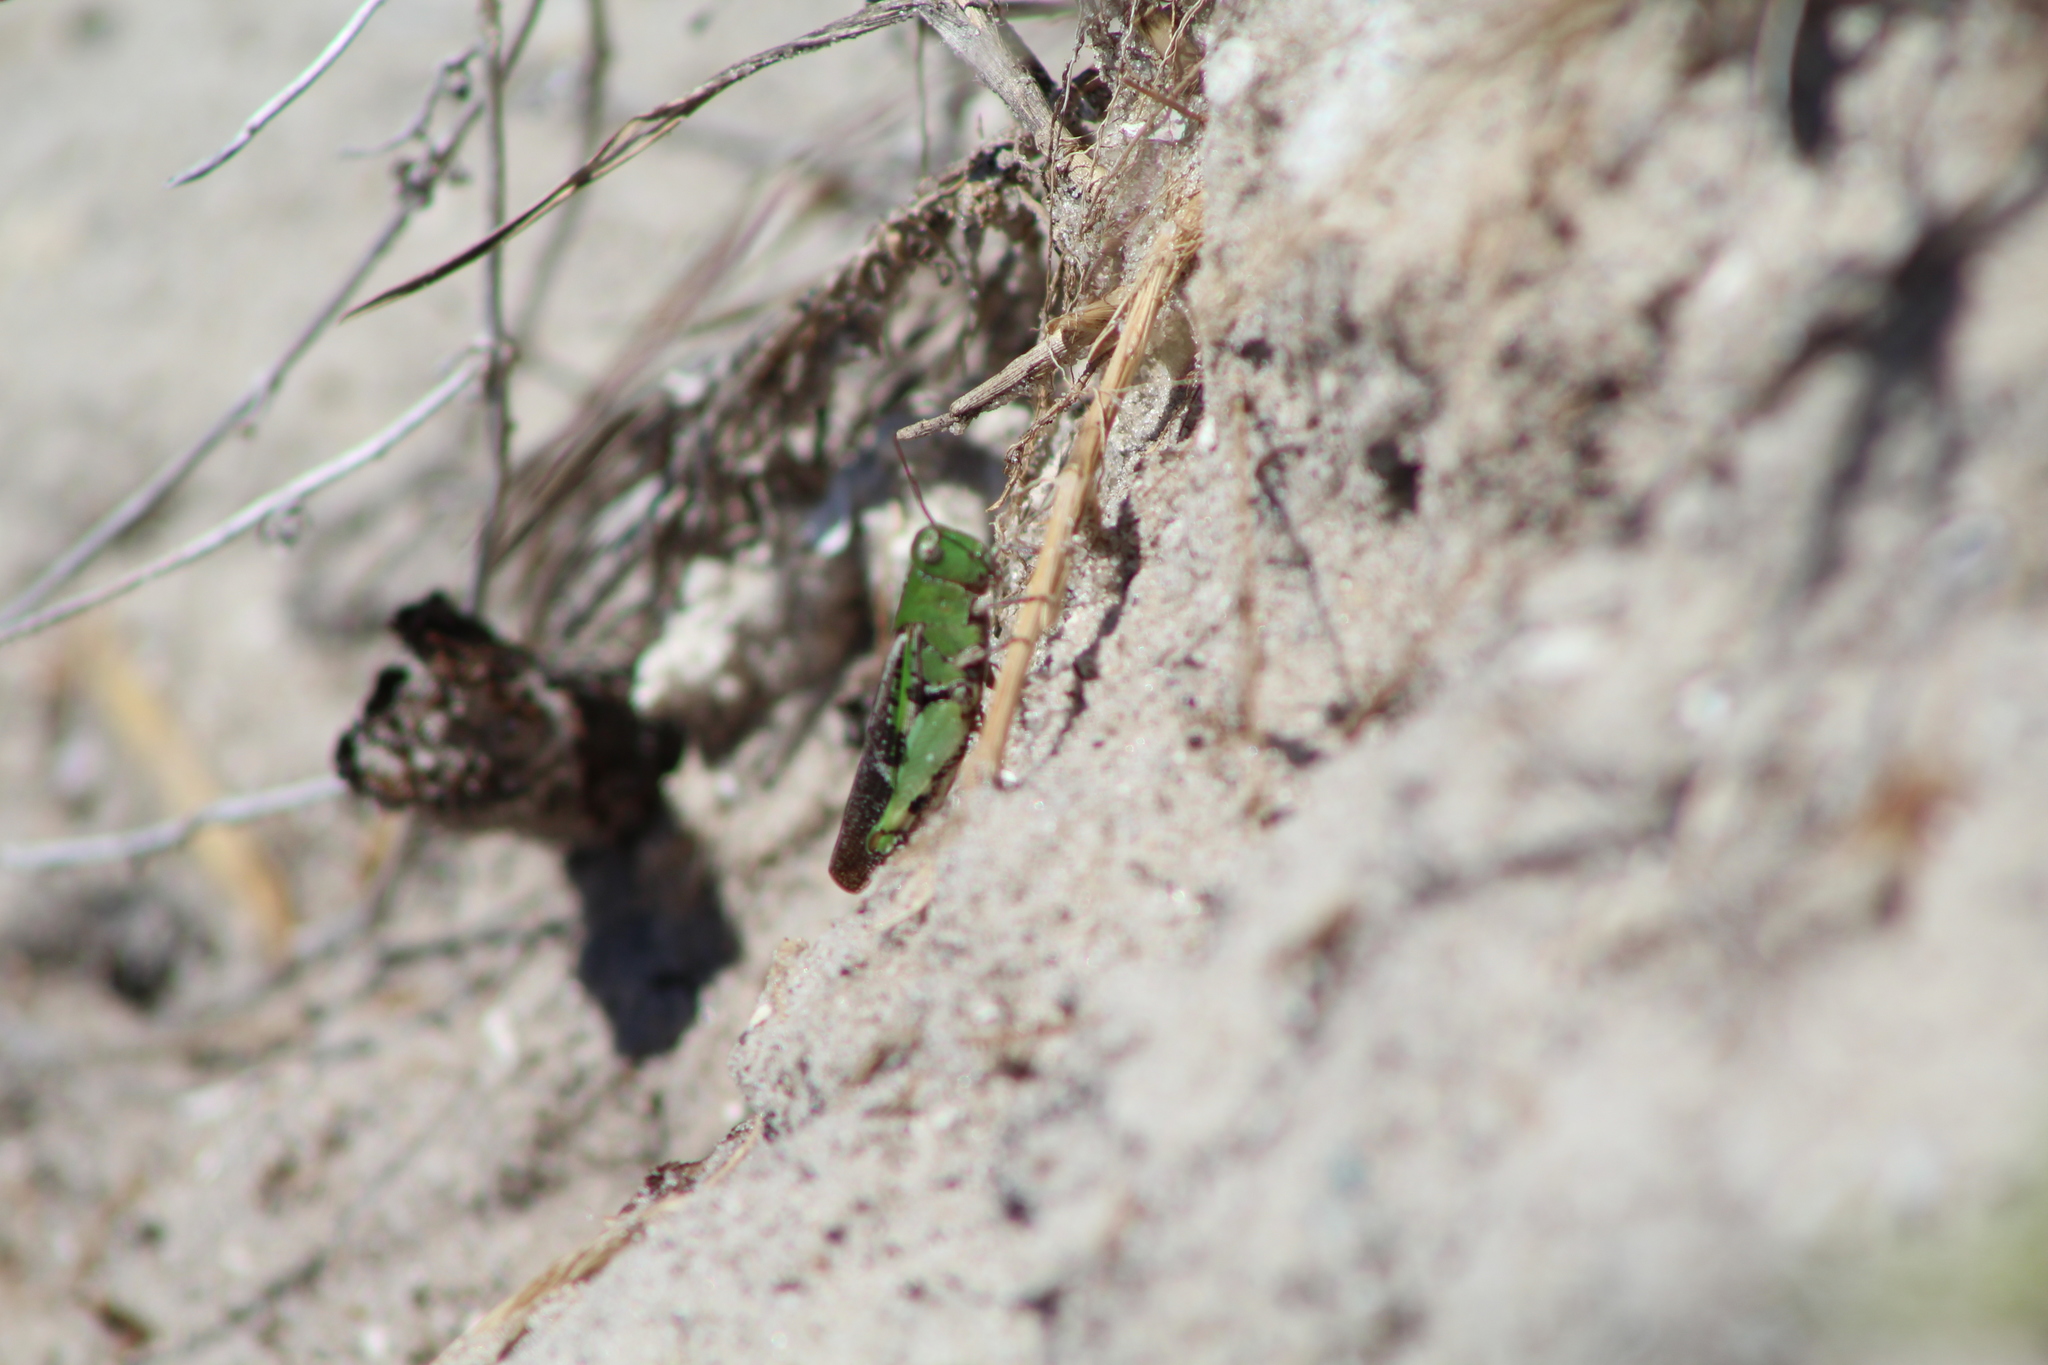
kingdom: Animalia
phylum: Arthropoda
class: Insecta
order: Orthoptera
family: Acrididae
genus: Chortophaga
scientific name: Chortophaga australior
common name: Southern green-striped grasshopper
